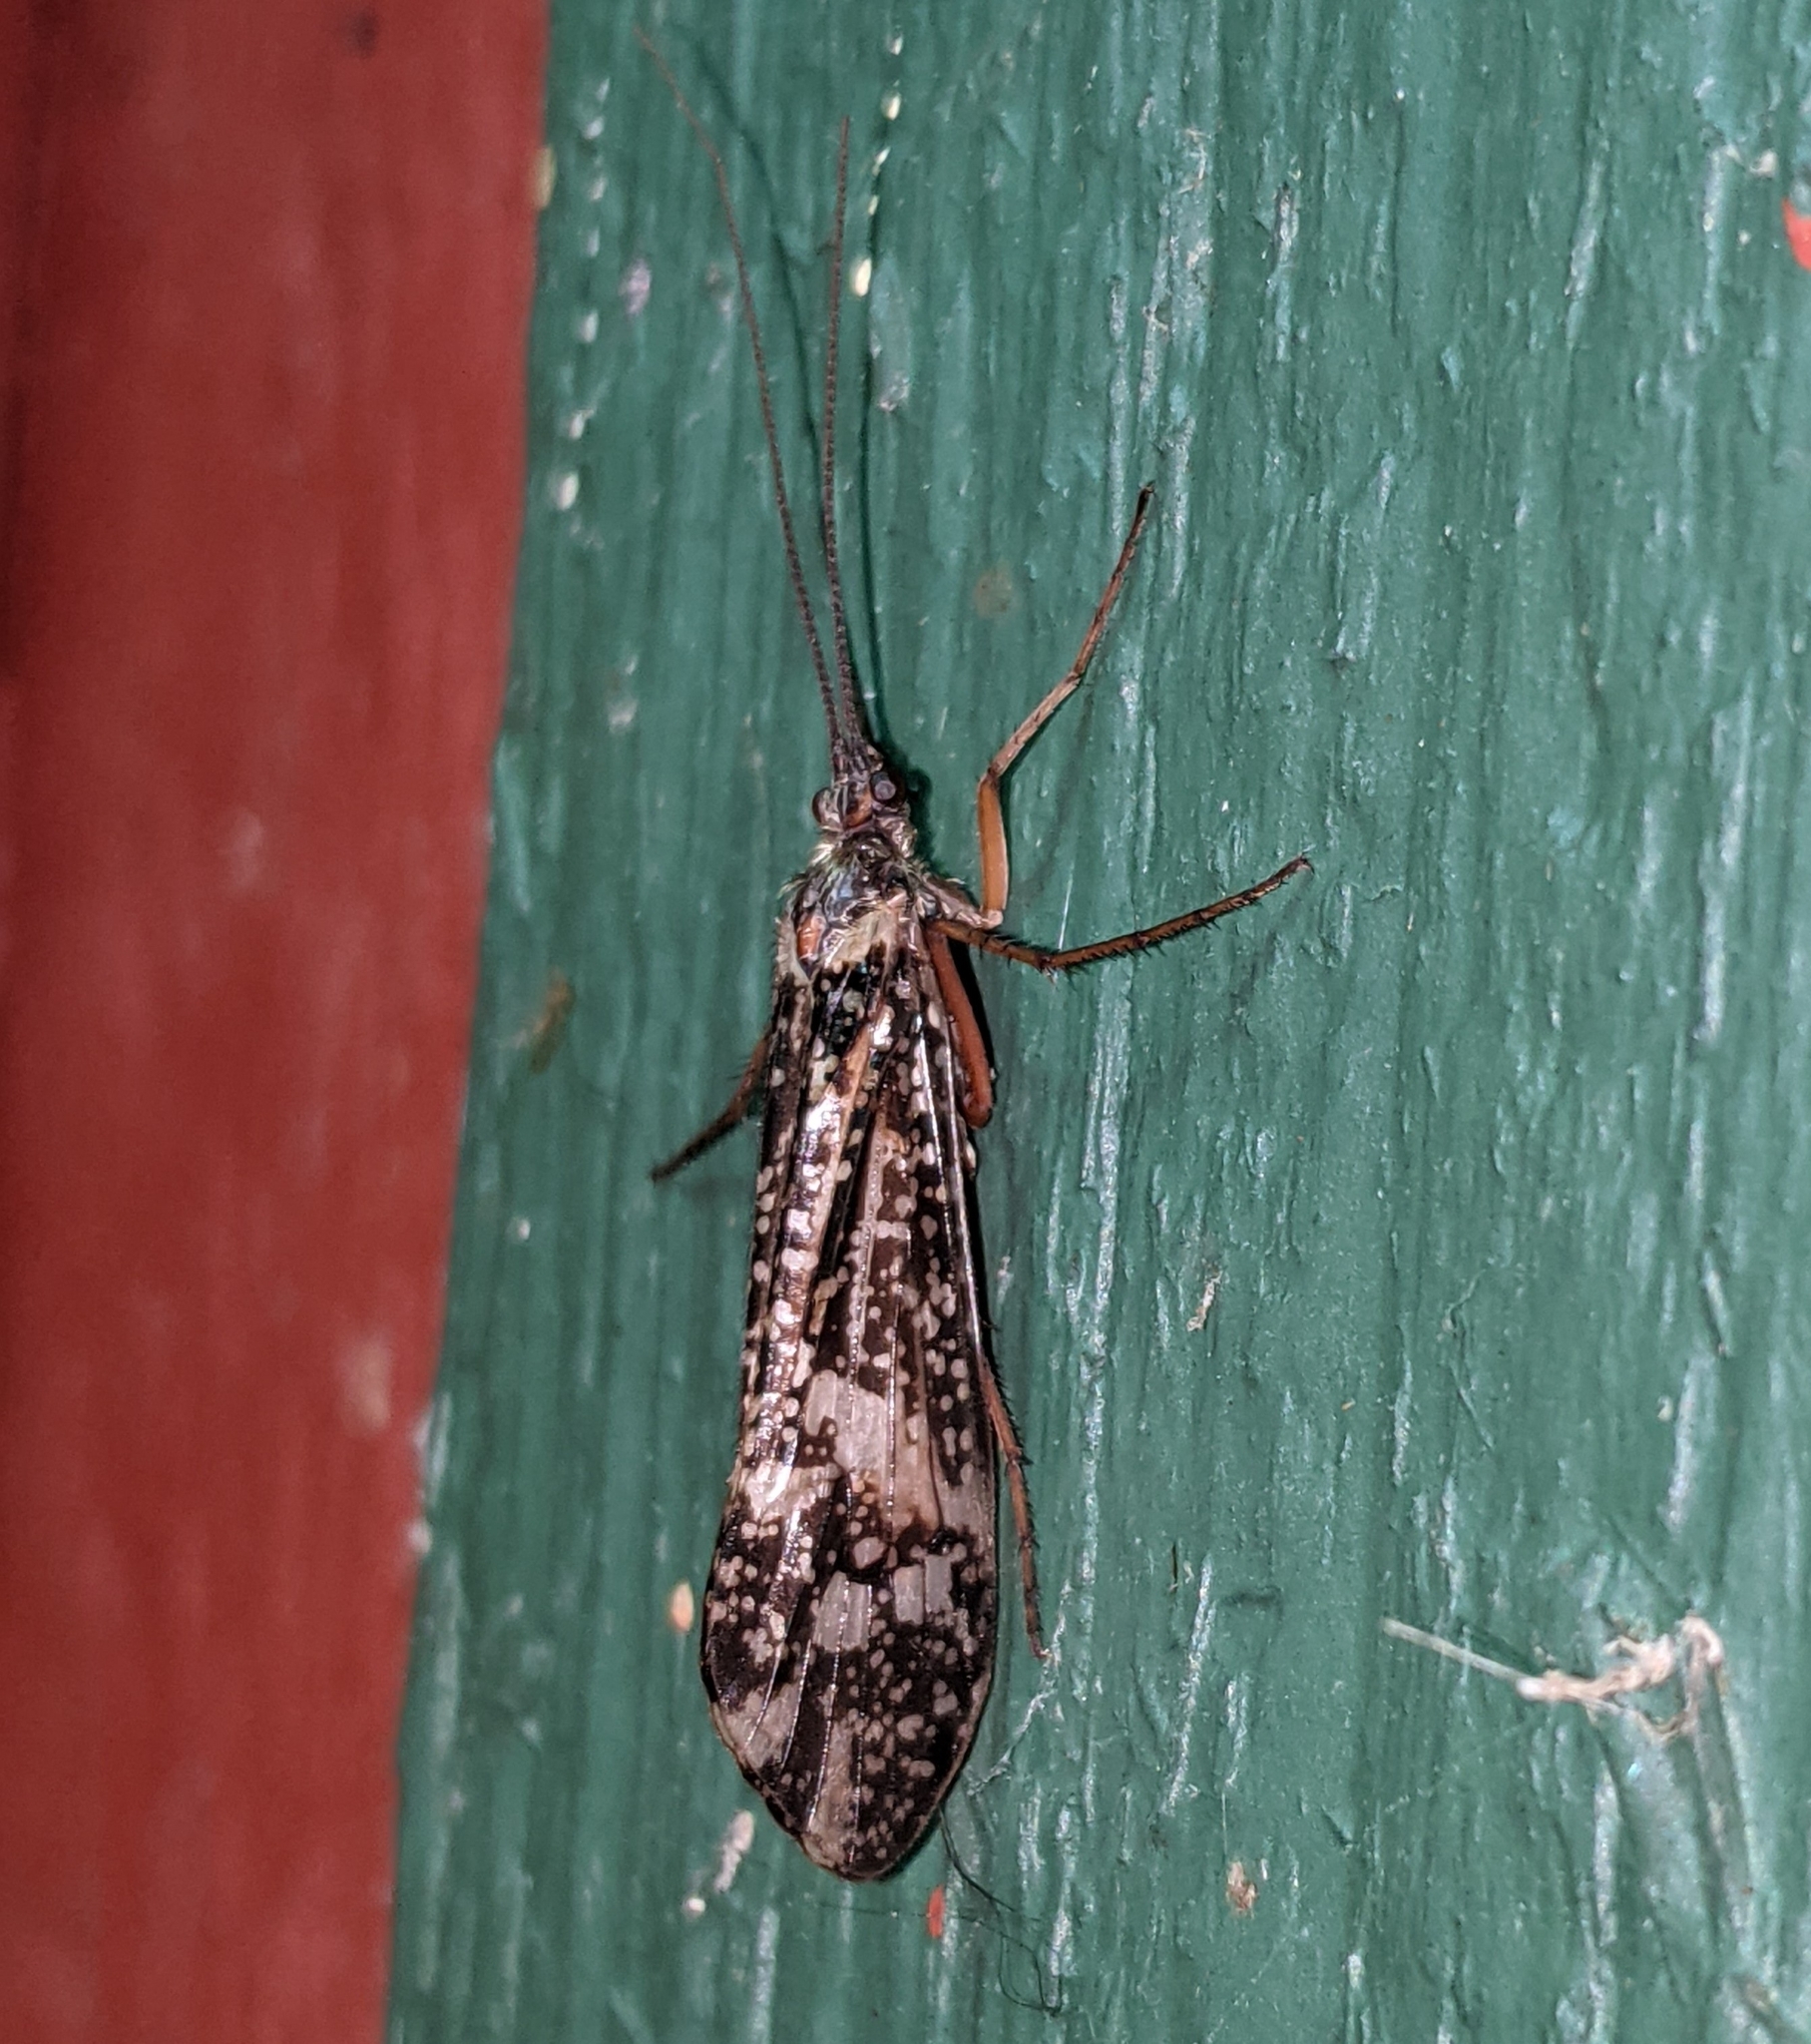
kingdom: Animalia
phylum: Arthropoda
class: Insecta
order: Trichoptera
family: Limnephilidae
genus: Clistoronia
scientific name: Clistoronia magnifica
